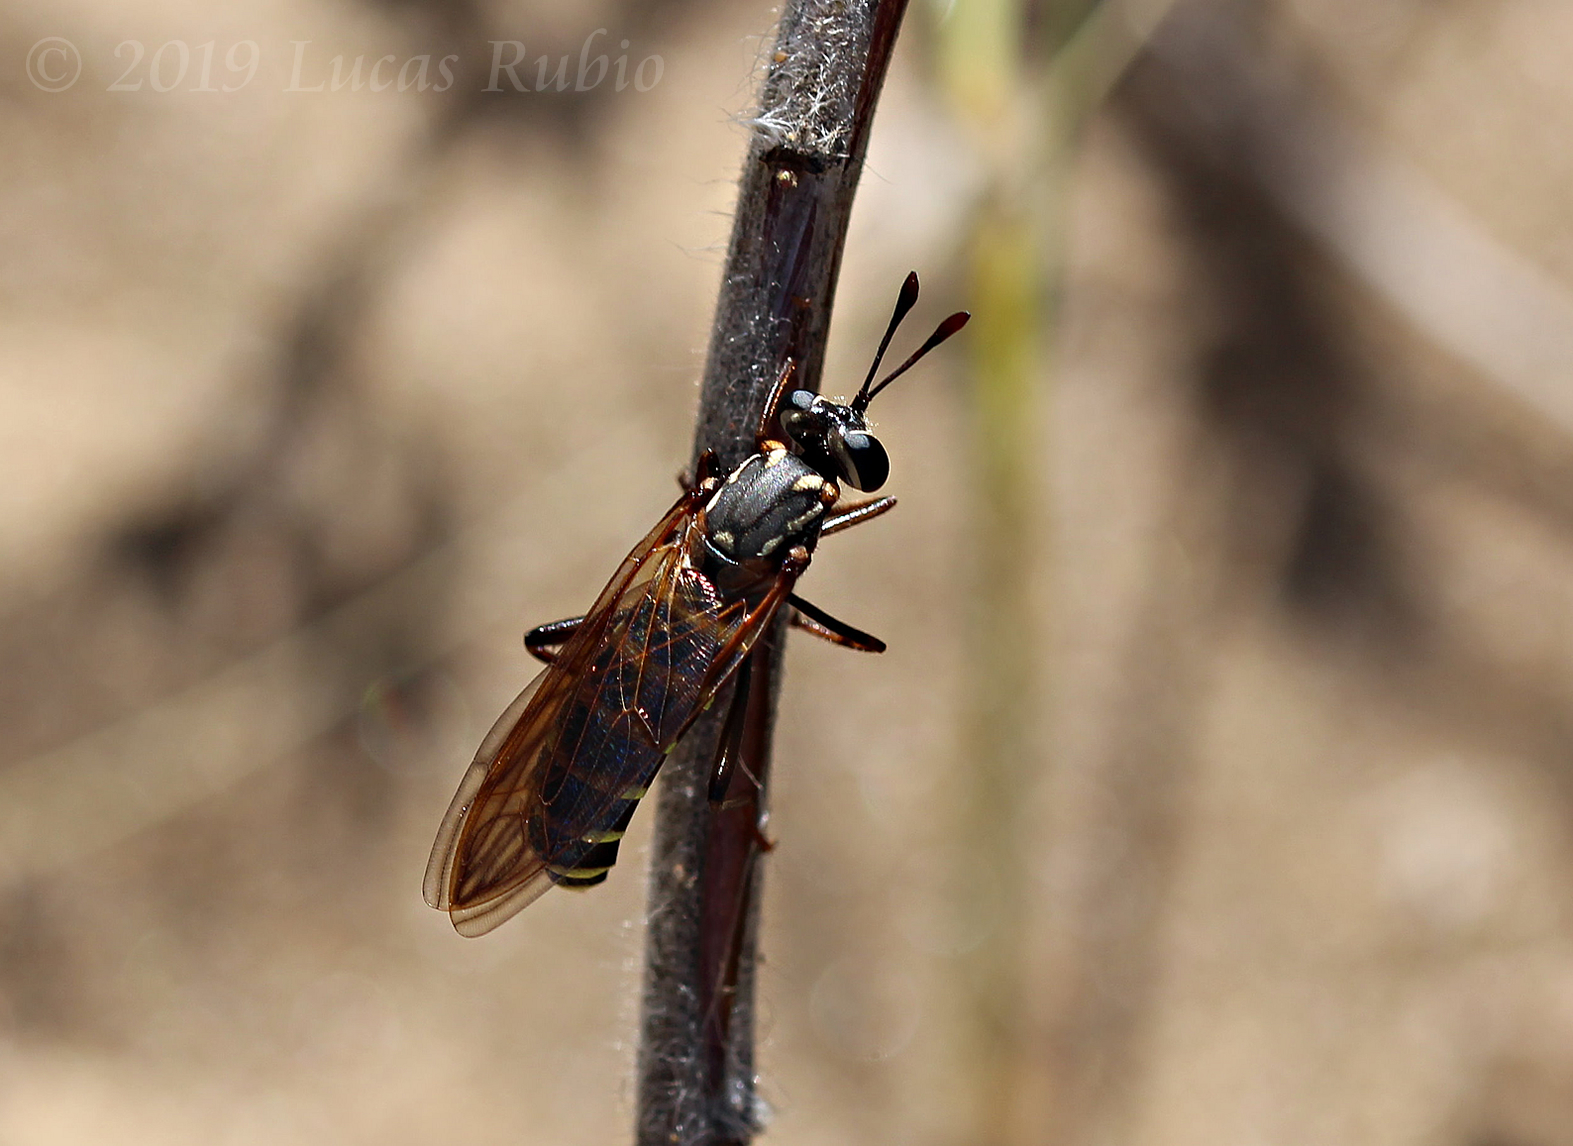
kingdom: Animalia
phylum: Arthropoda
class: Insecta
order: Diptera
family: Mydidae
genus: Messiasia
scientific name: Messiasia notospila
